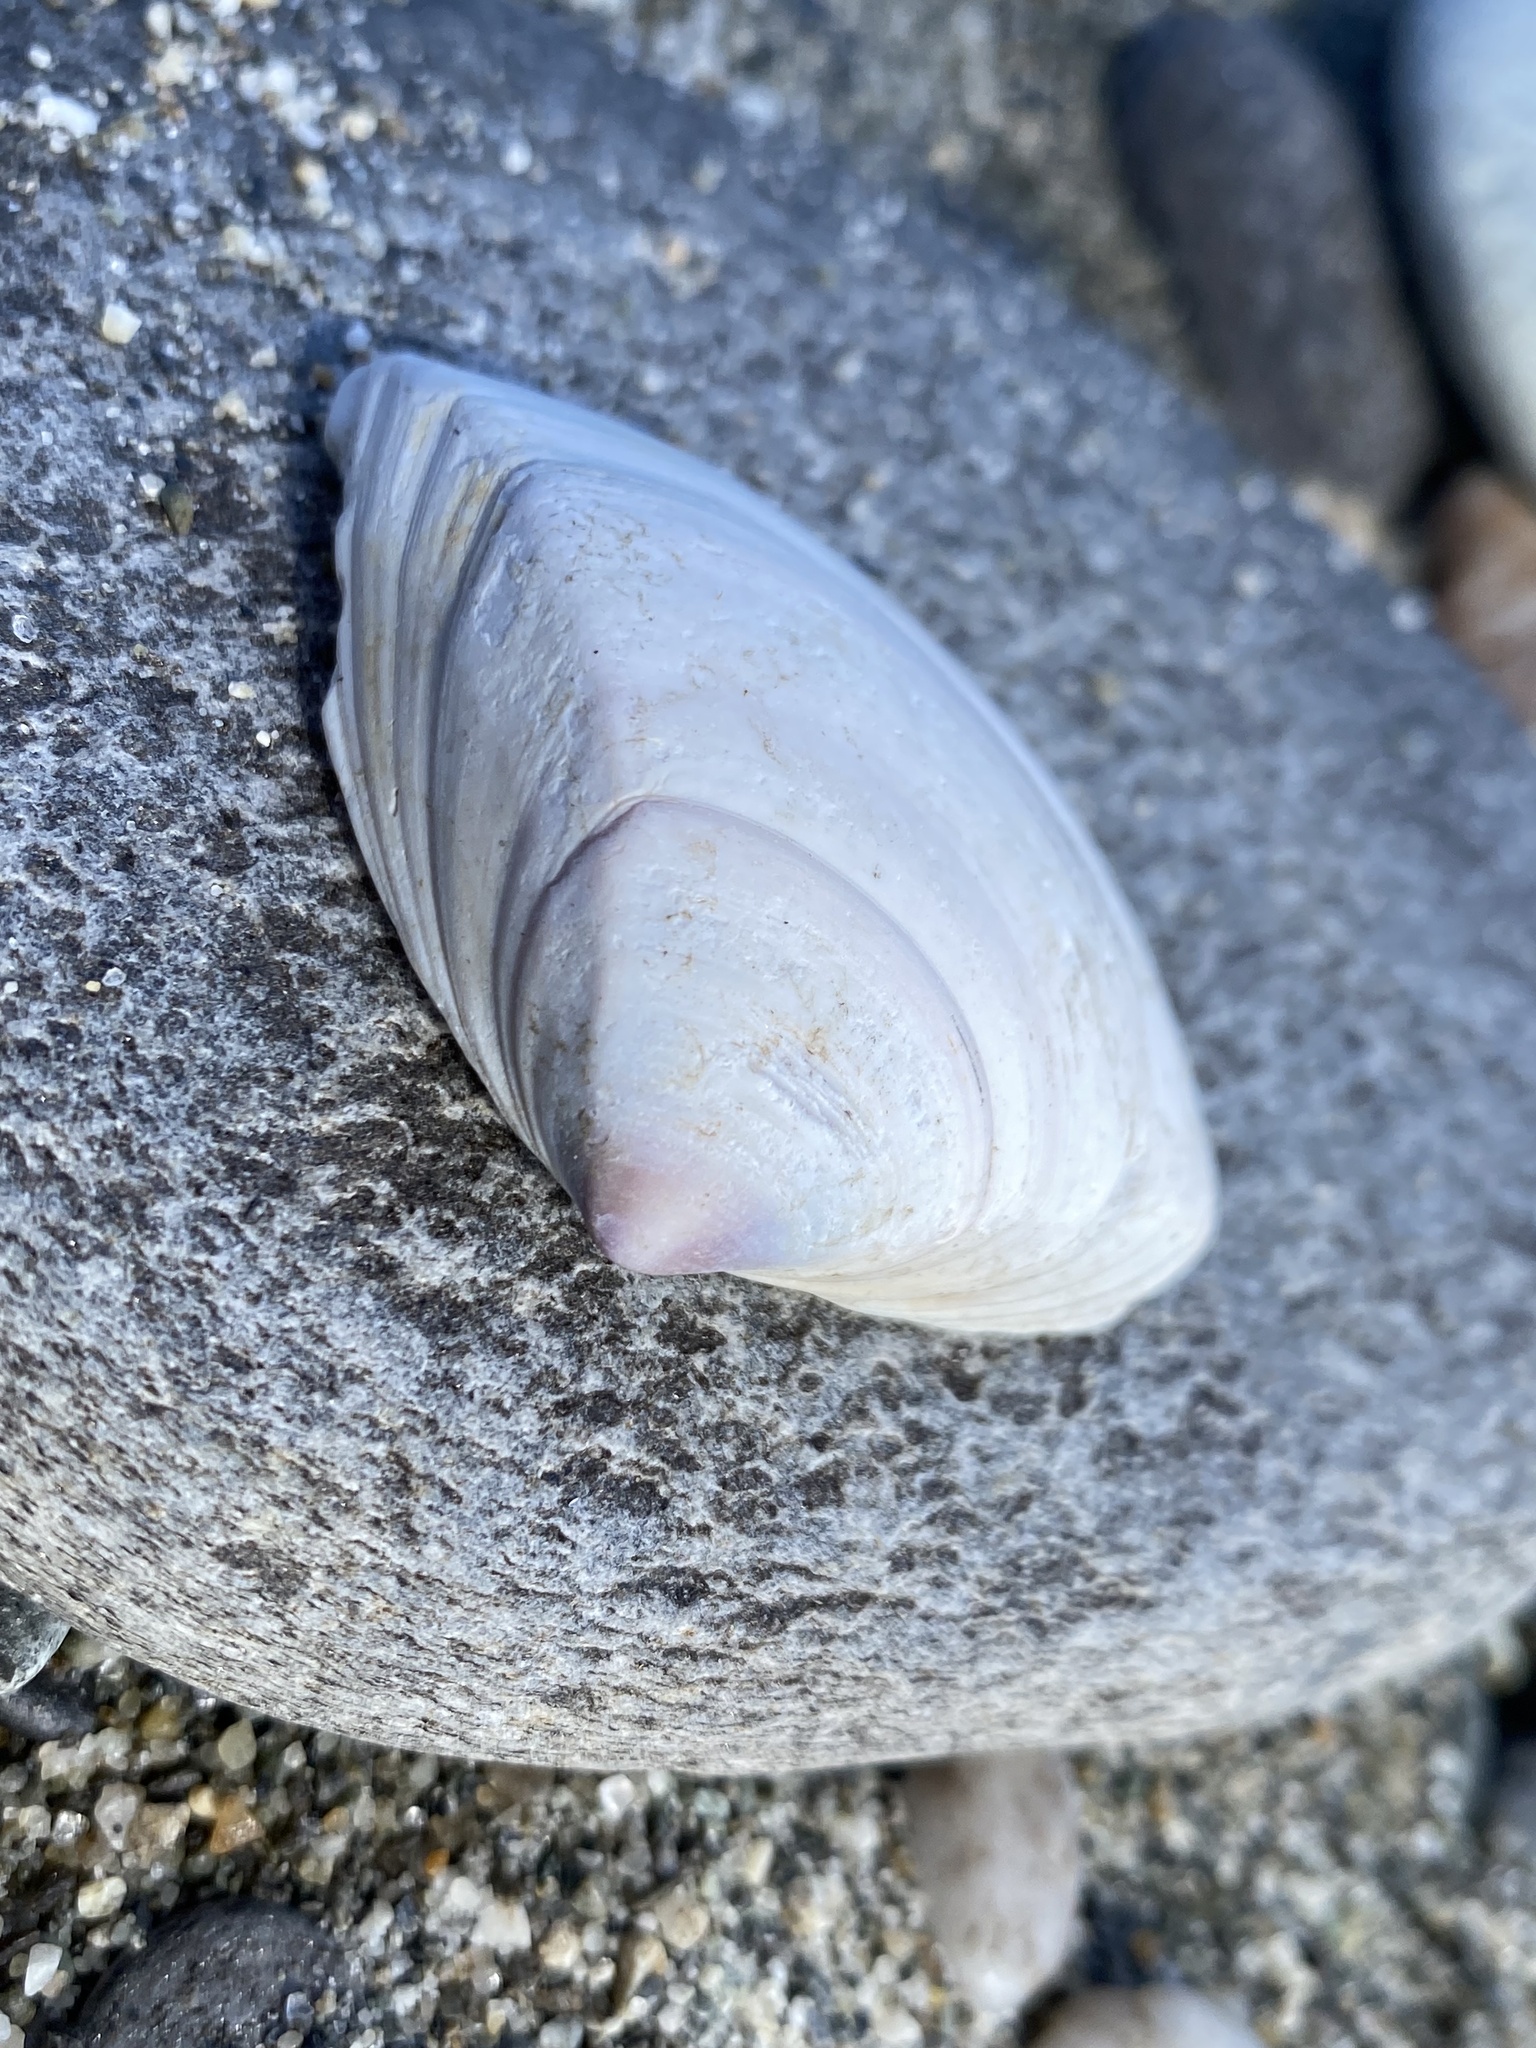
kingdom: Animalia
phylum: Mollusca
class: Bivalvia
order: Venerida
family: Mactridae
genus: Crassula
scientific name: Crassula aequilatera
